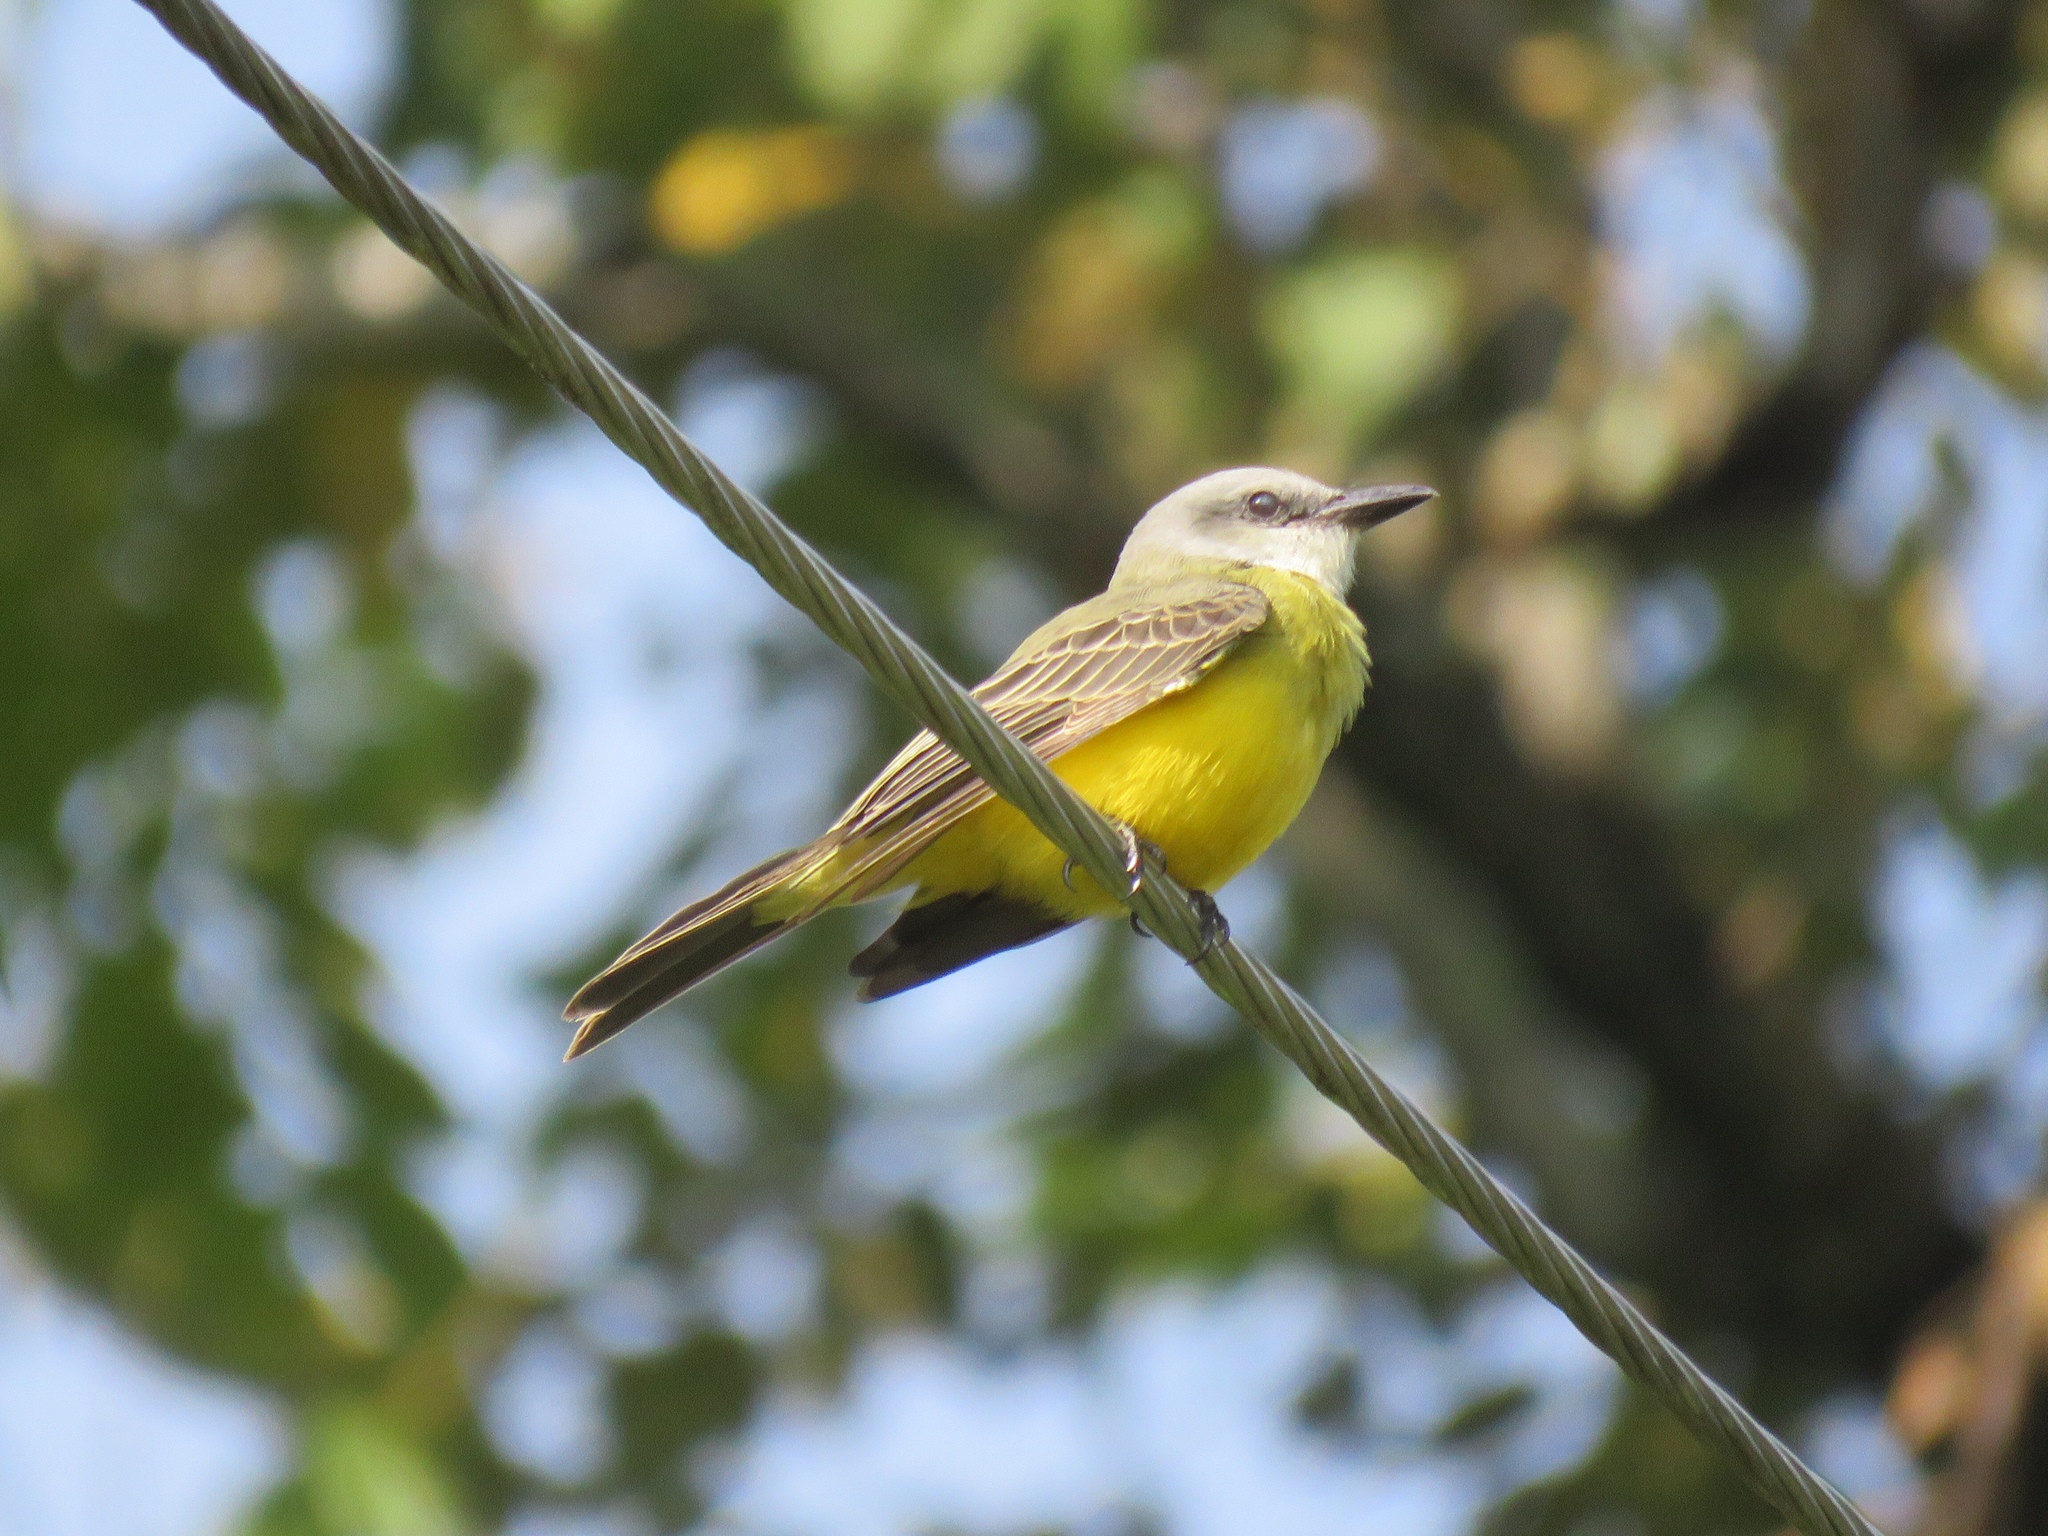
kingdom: Animalia
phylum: Chordata
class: Aves
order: Passeriformes
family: Tyrannidae
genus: Tyrannus
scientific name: Tyrannus melancholicus
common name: Tropical kingbird
